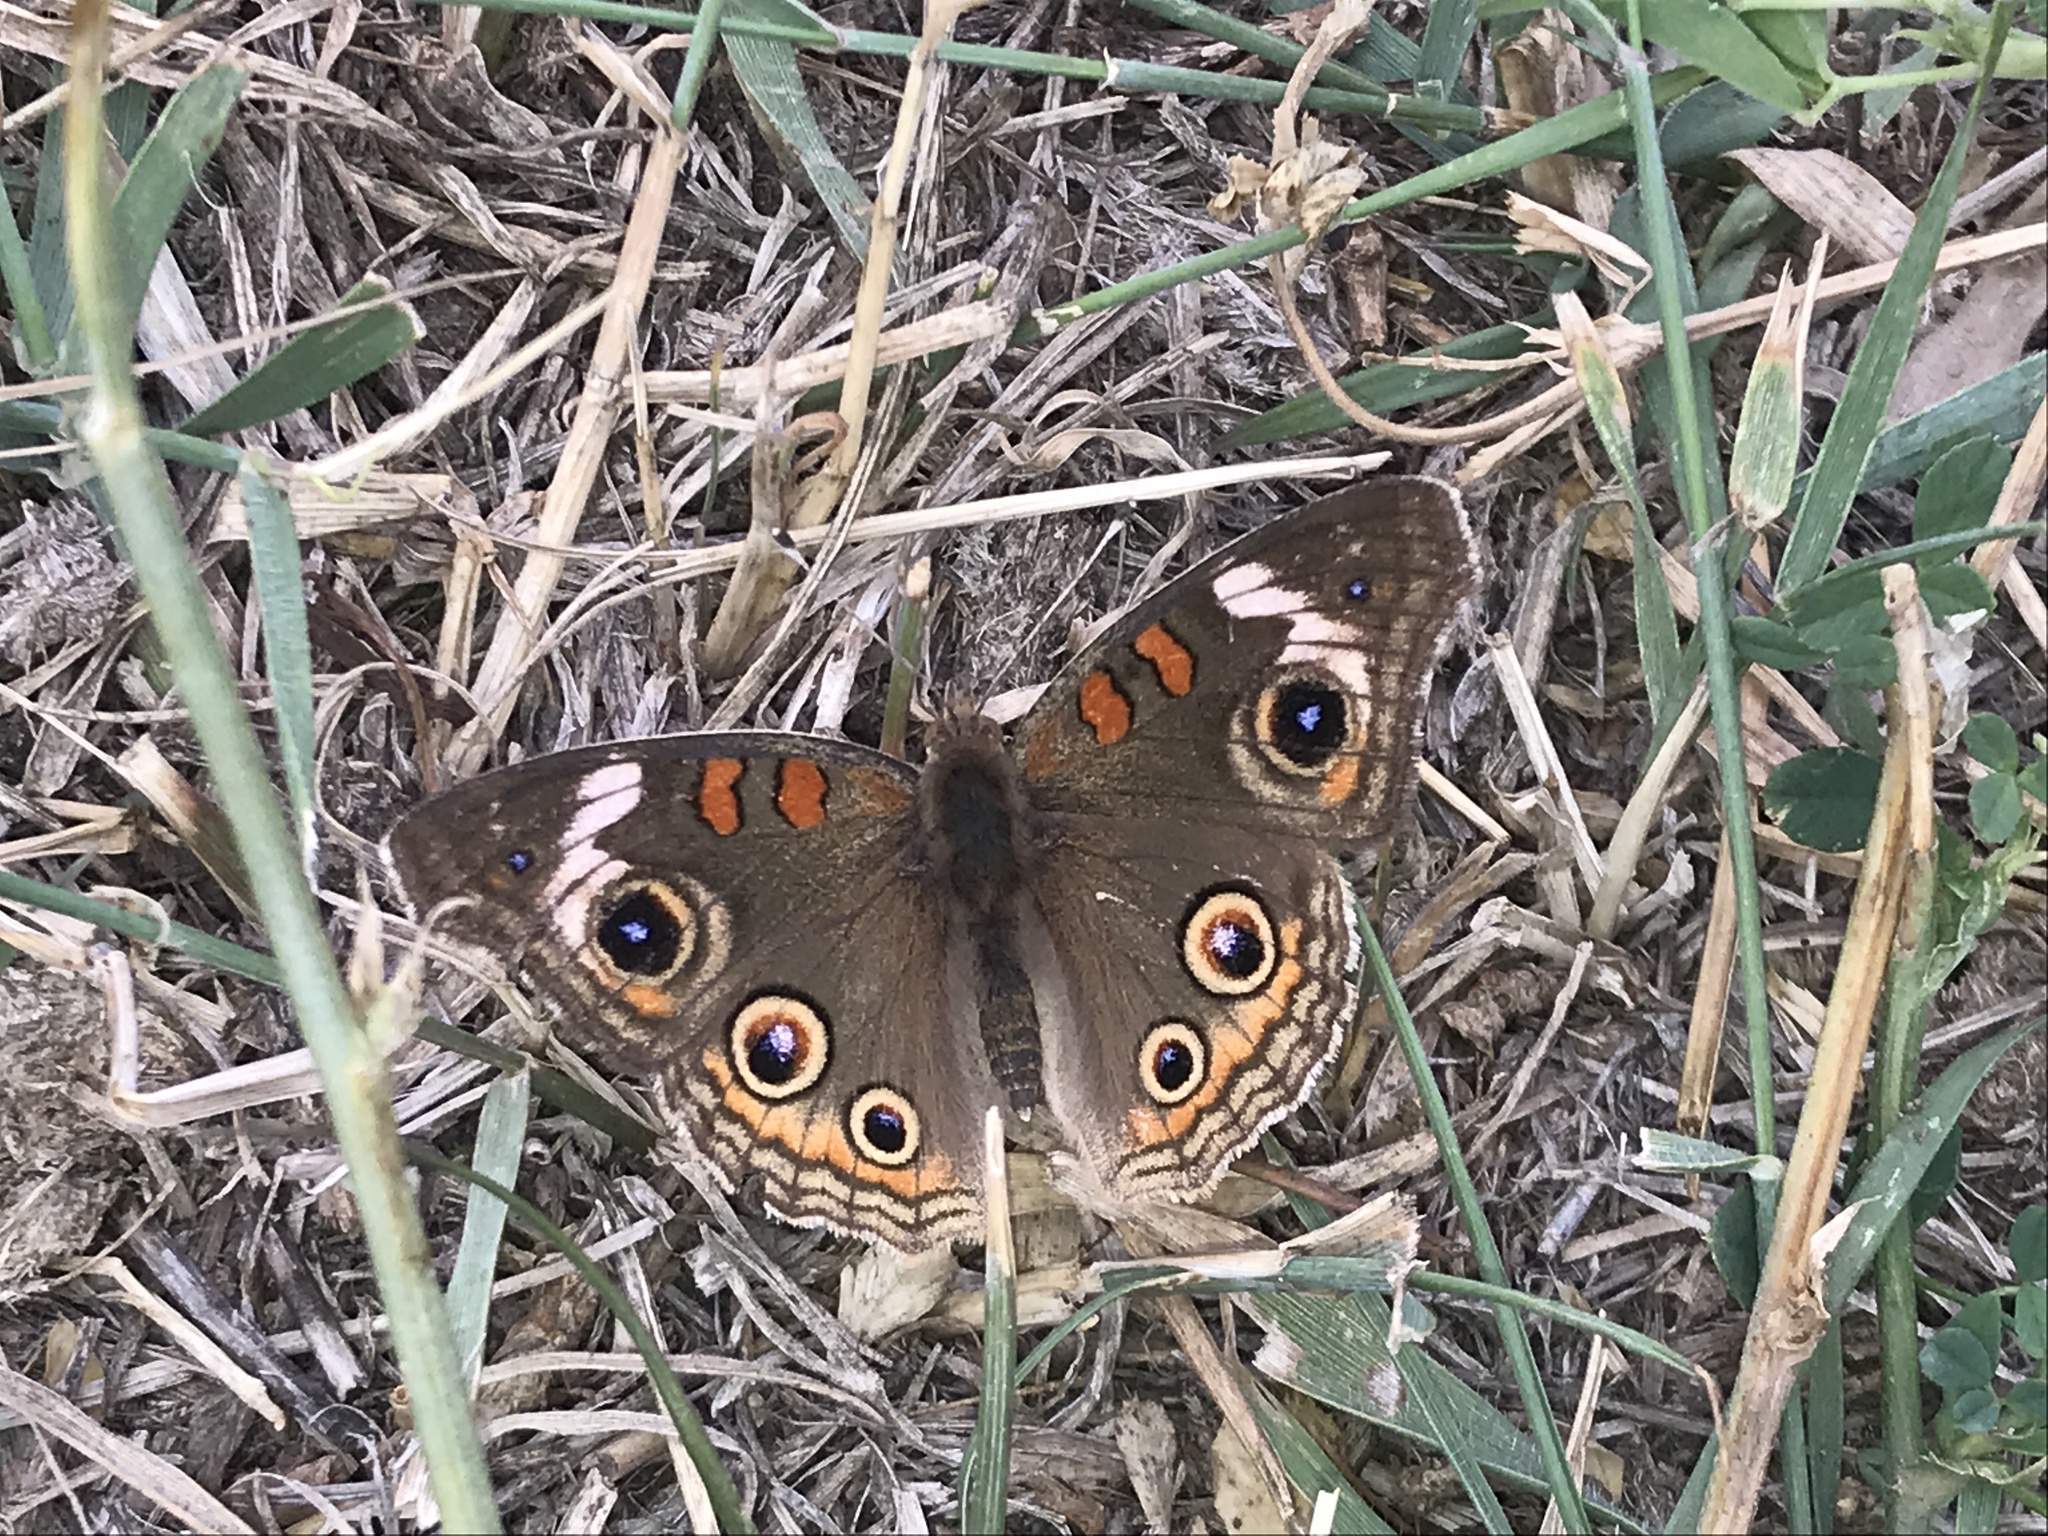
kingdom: Animalia
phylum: Arthropoda
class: Insecta
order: Lepidoptera
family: Nymphalidae
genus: Junonia
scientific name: Junonia grisea
